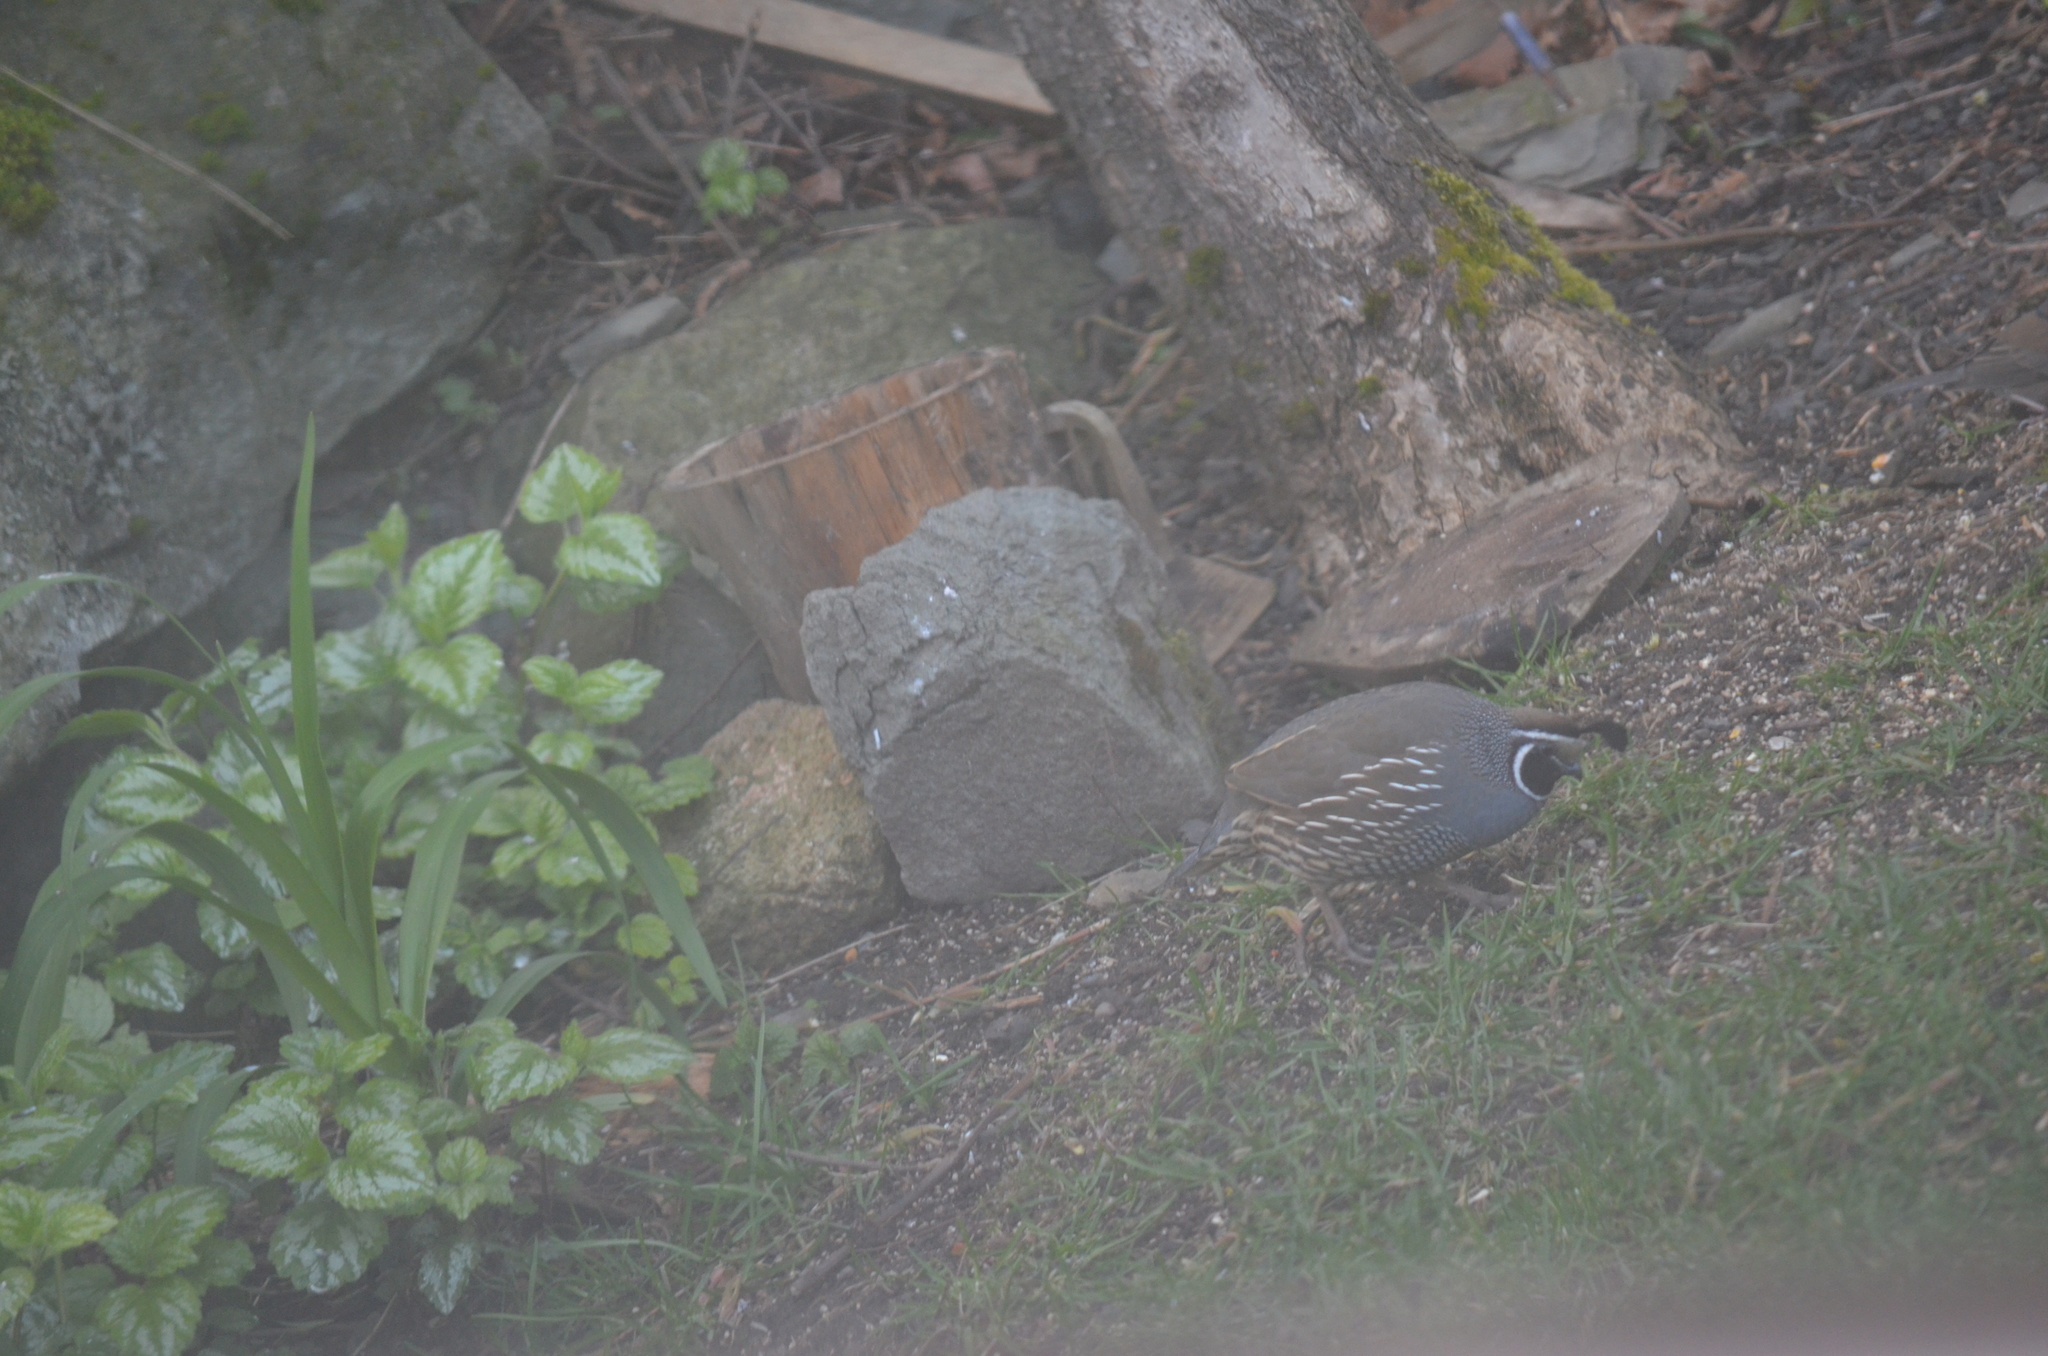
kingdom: Animalia
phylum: Chordata
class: Aves
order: Galliformes
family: Odontophoridae
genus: Callipepla
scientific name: Callipepla californica
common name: California quail
